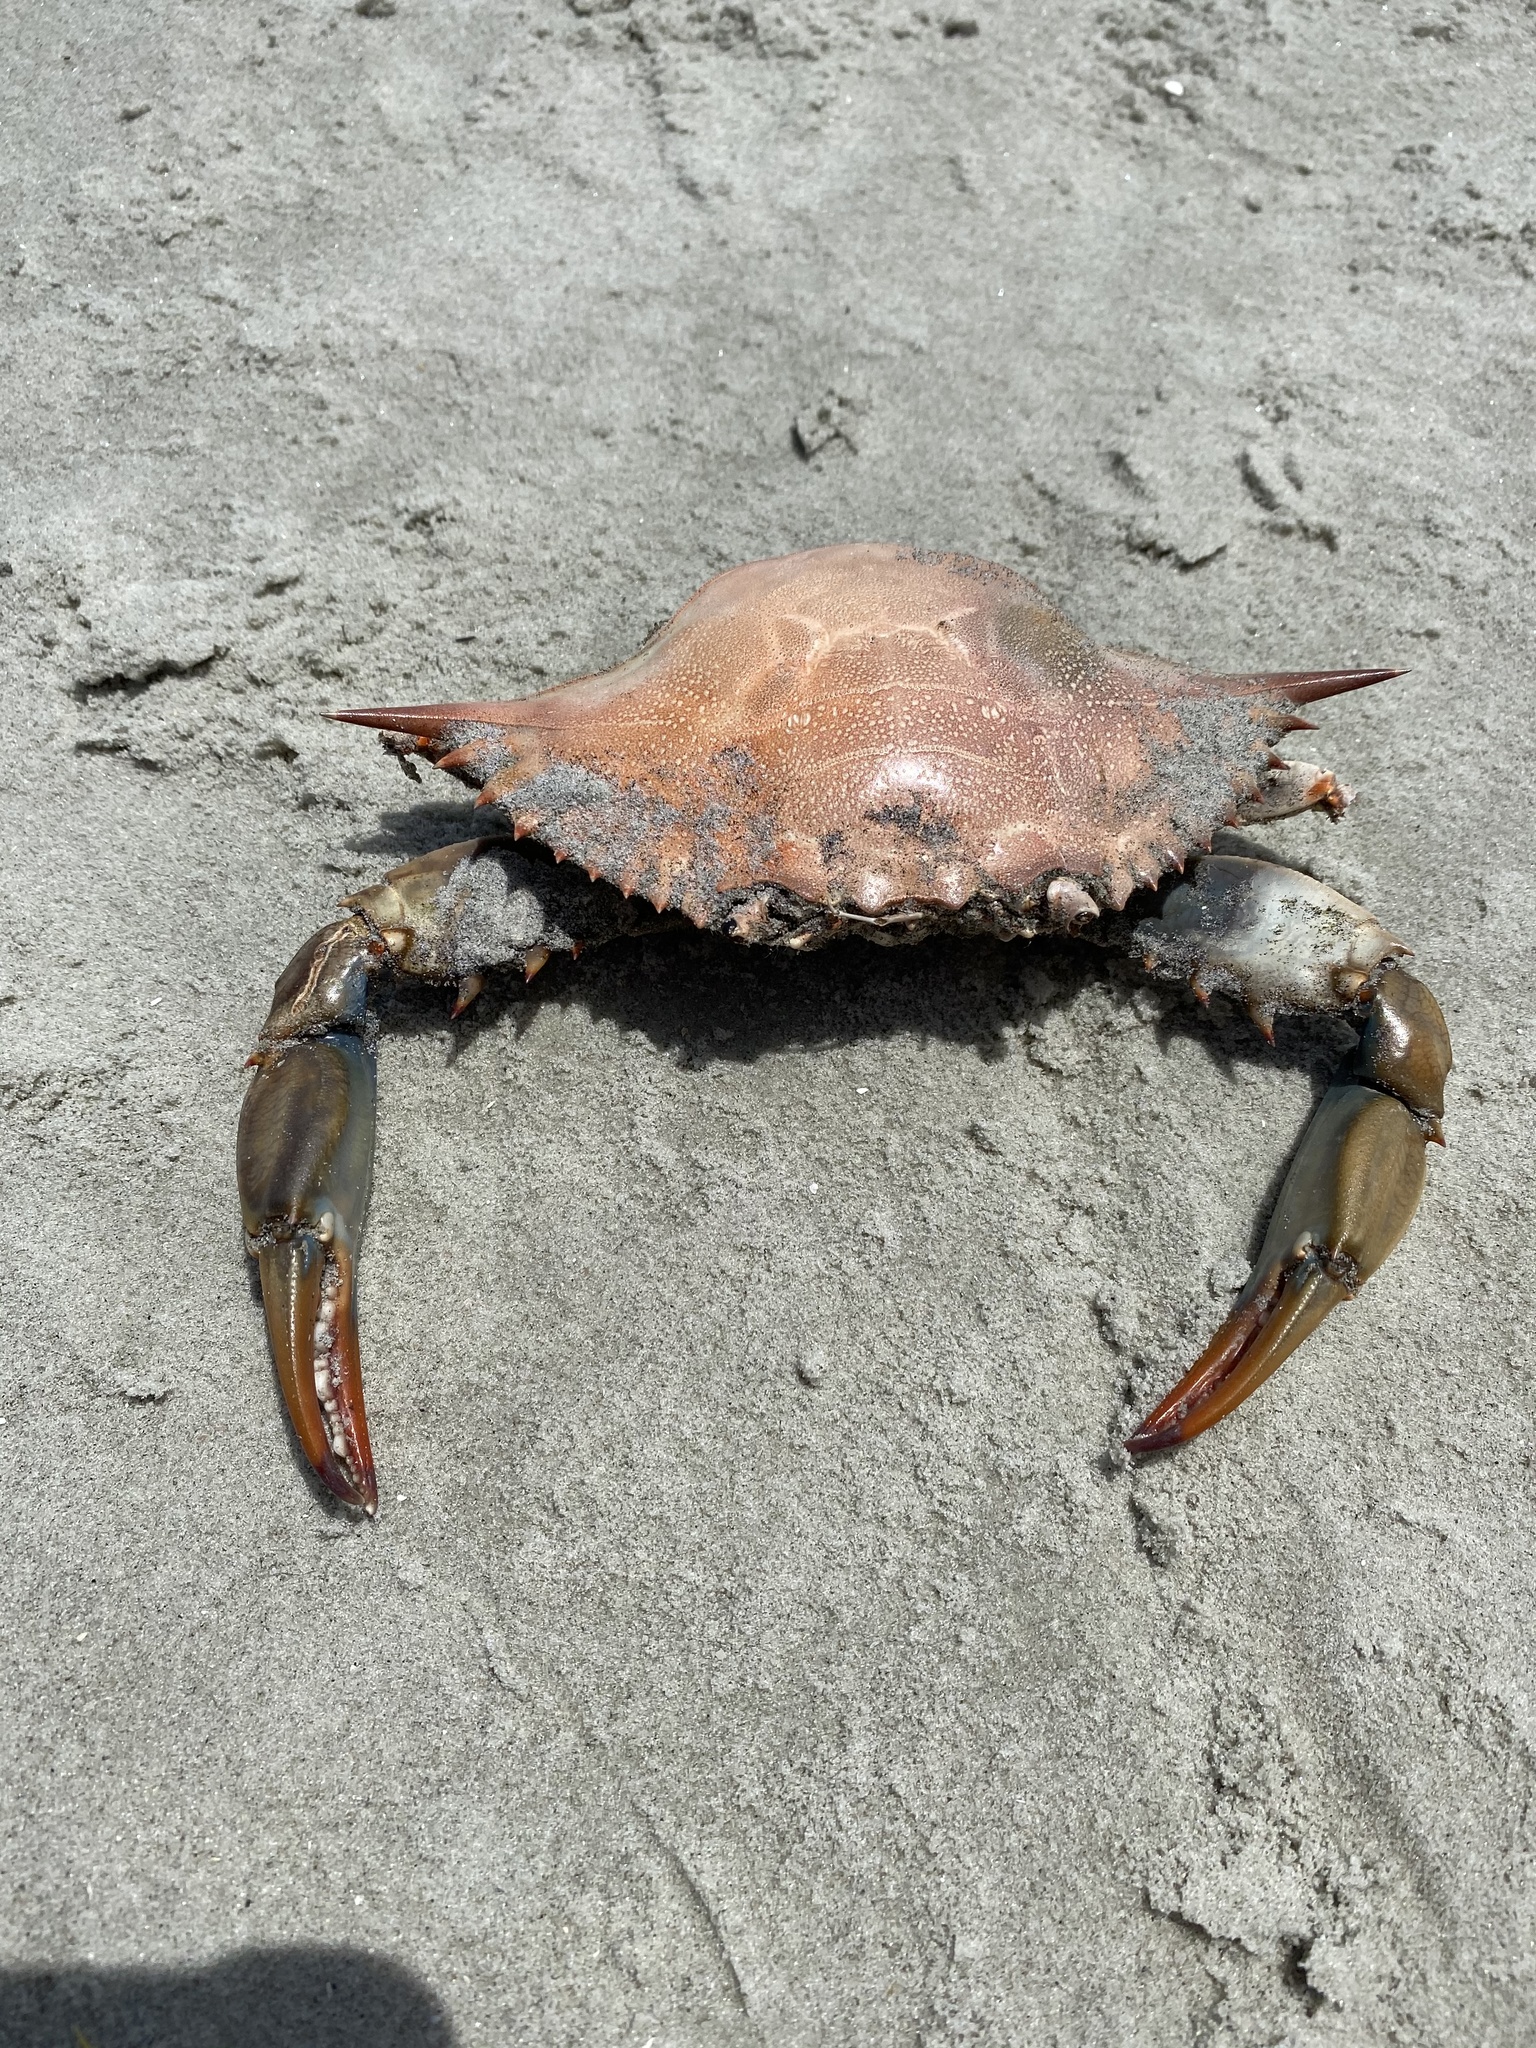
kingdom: Animalia
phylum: Arthropoda
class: Malacostraca
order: Decapoda
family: Portunidae
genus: Callinectes
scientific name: Callinectes sapidus
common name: Blue crab
